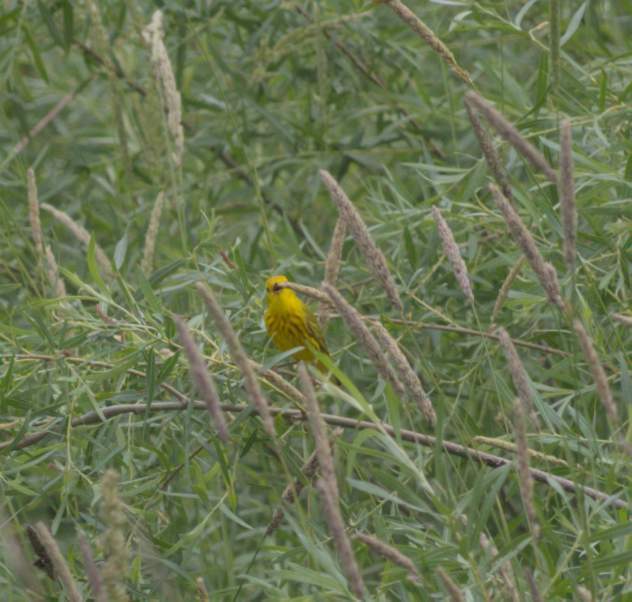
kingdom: Animalia
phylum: Chordata
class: Aves
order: Passeriformes
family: Parulidae
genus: Setophaga
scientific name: Setophaga petechia
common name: Yellow warbler
